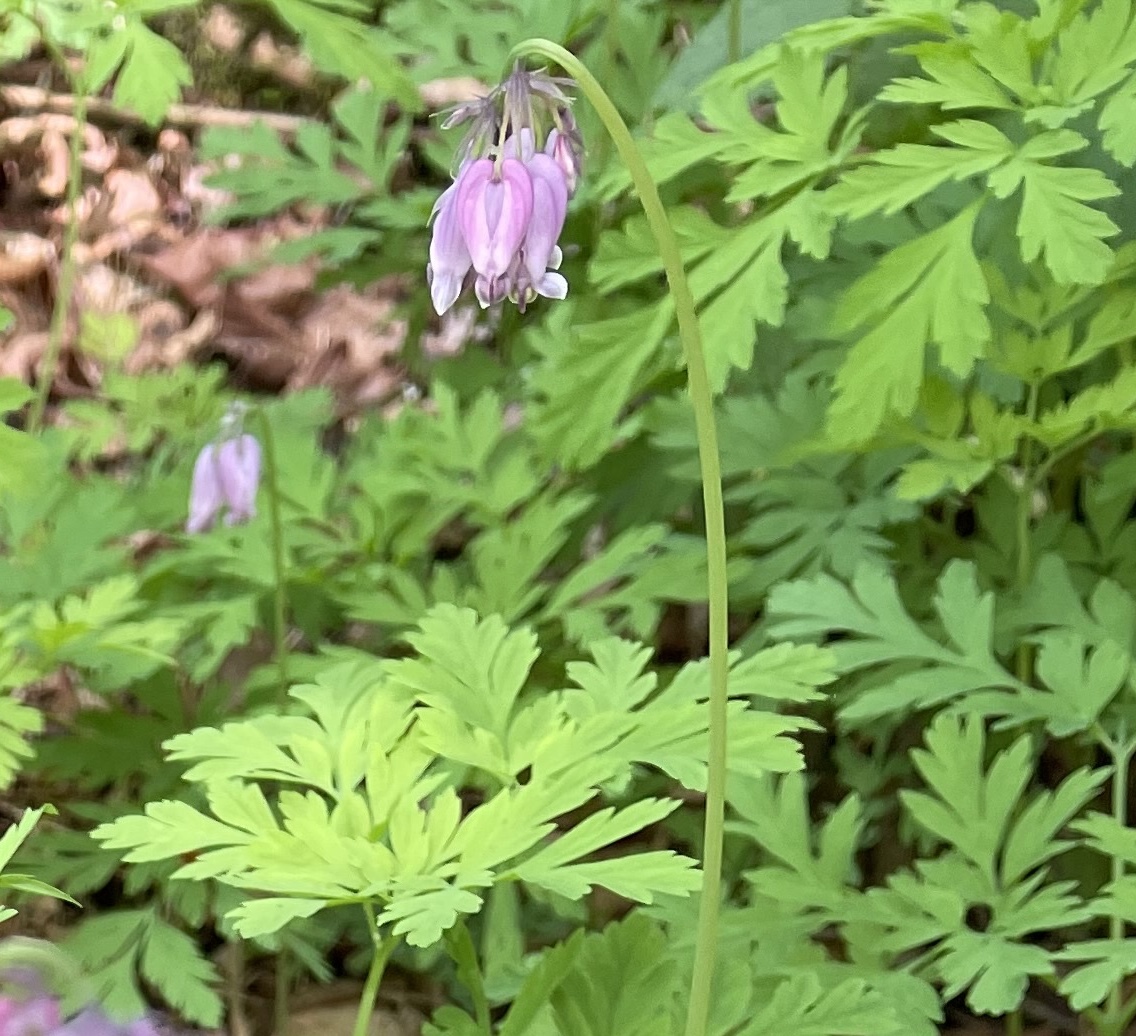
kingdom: Plantae
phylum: Tracheophyta
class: Magnoliopsida
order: Ranunculales
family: Papaveraceae
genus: Dicentra
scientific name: Dicentra formosa
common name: Bleeding-heart
